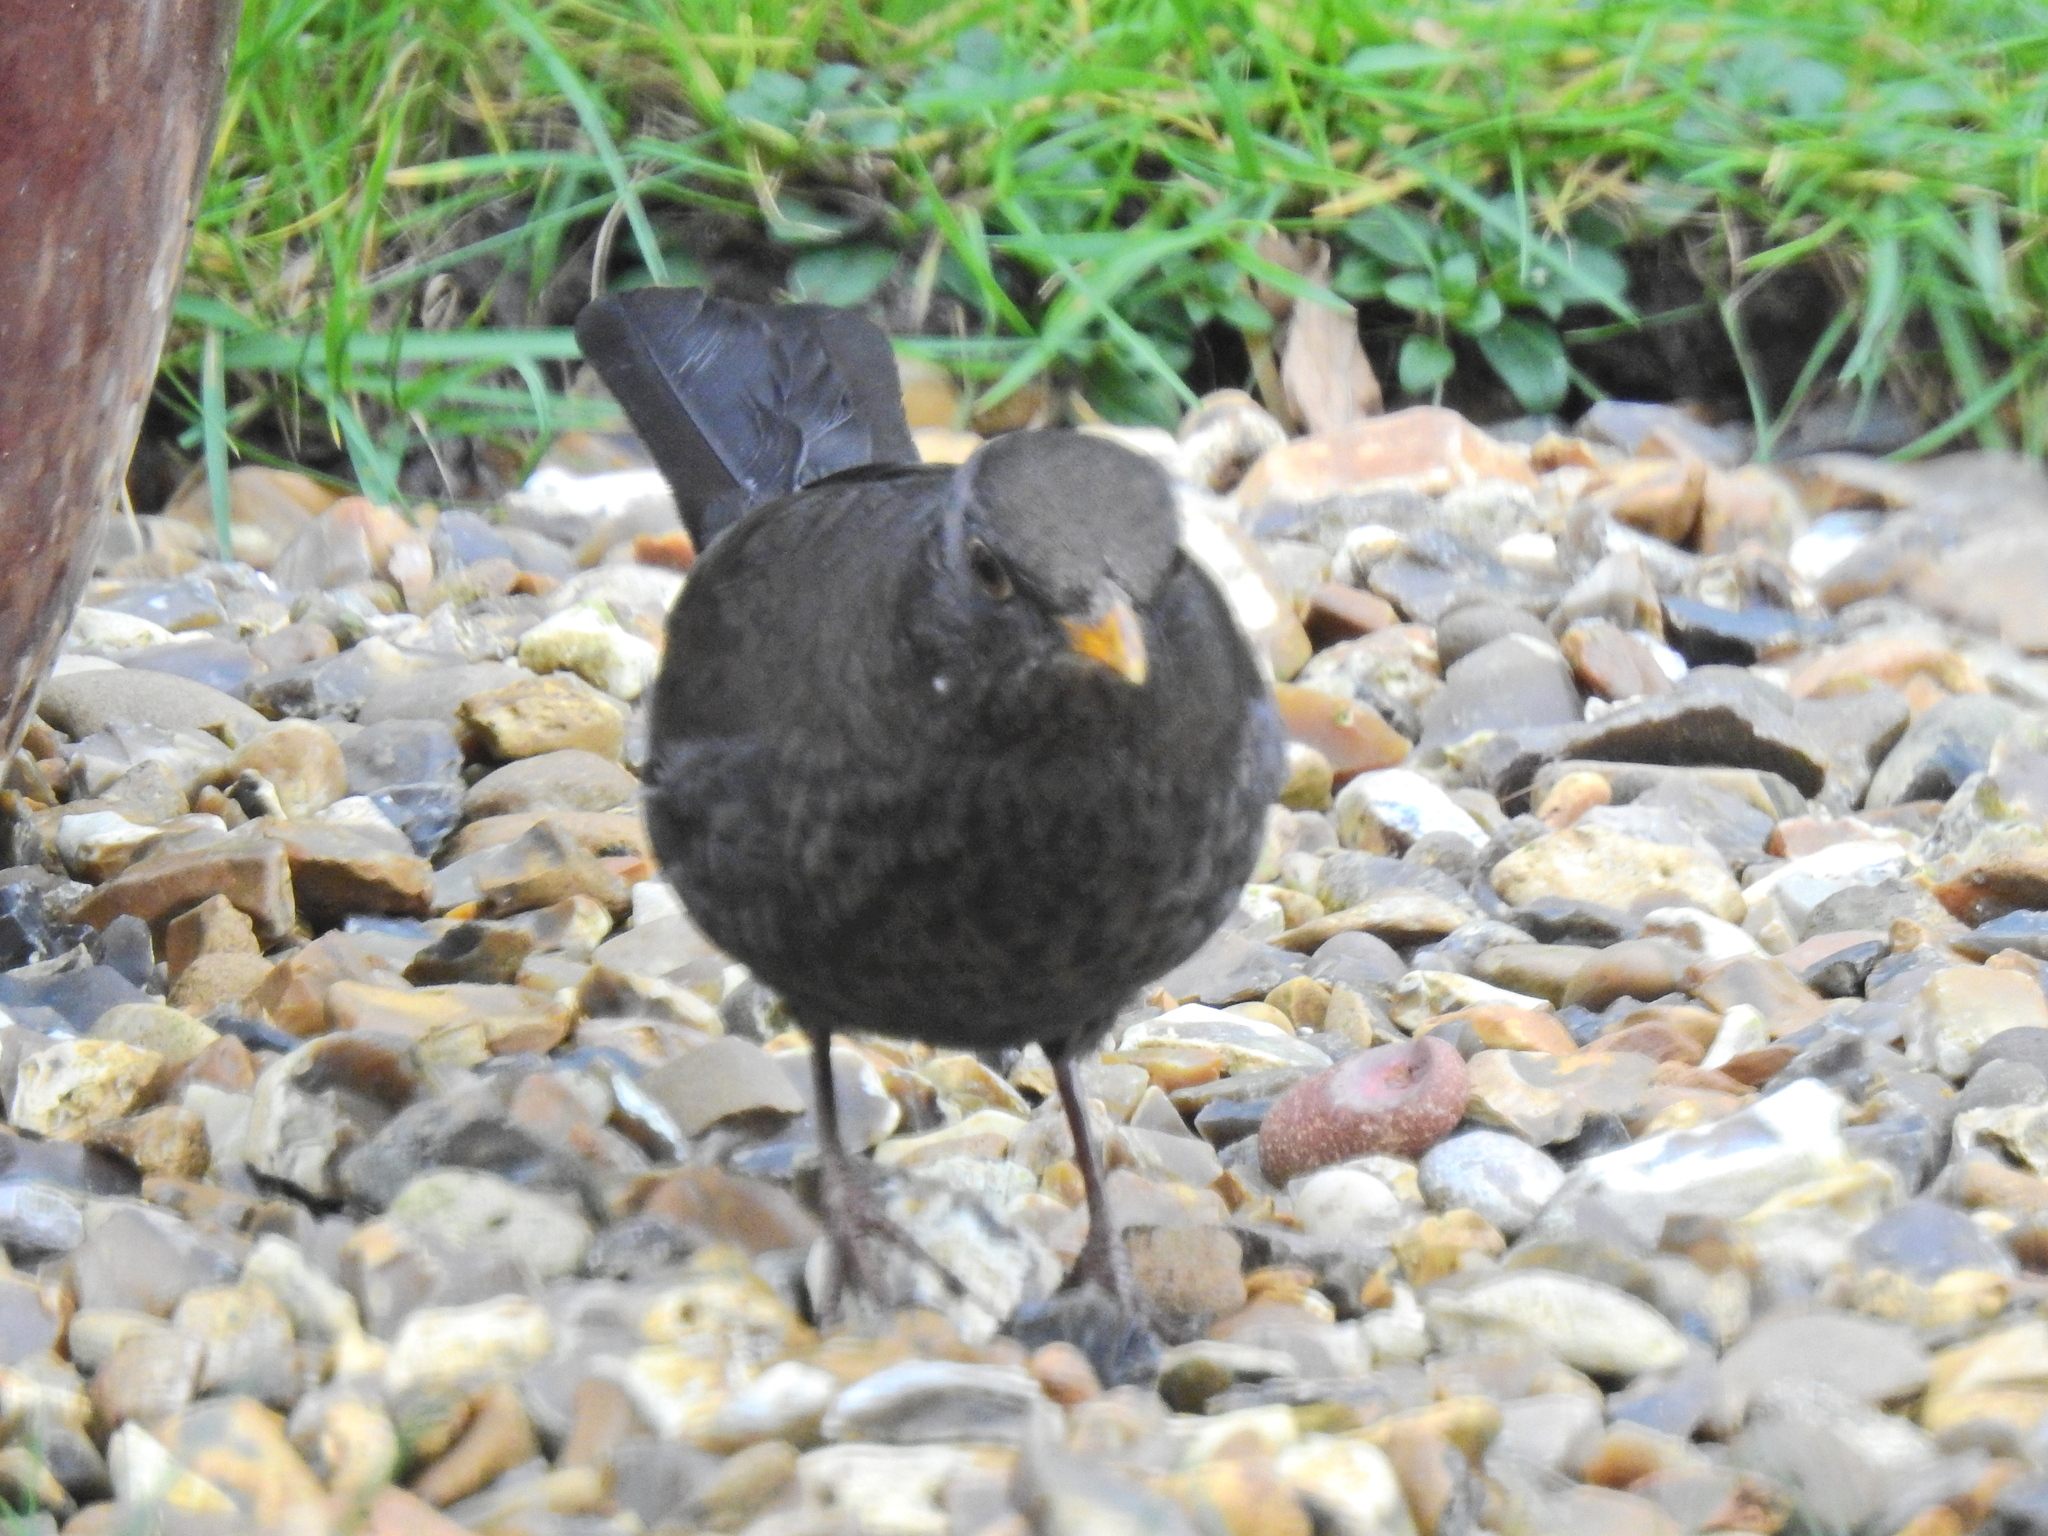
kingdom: Animalia
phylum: Chordata
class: Aves
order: Passeriformes
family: Turdidae
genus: Turdus
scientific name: Turdus merula
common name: Common blackbird
